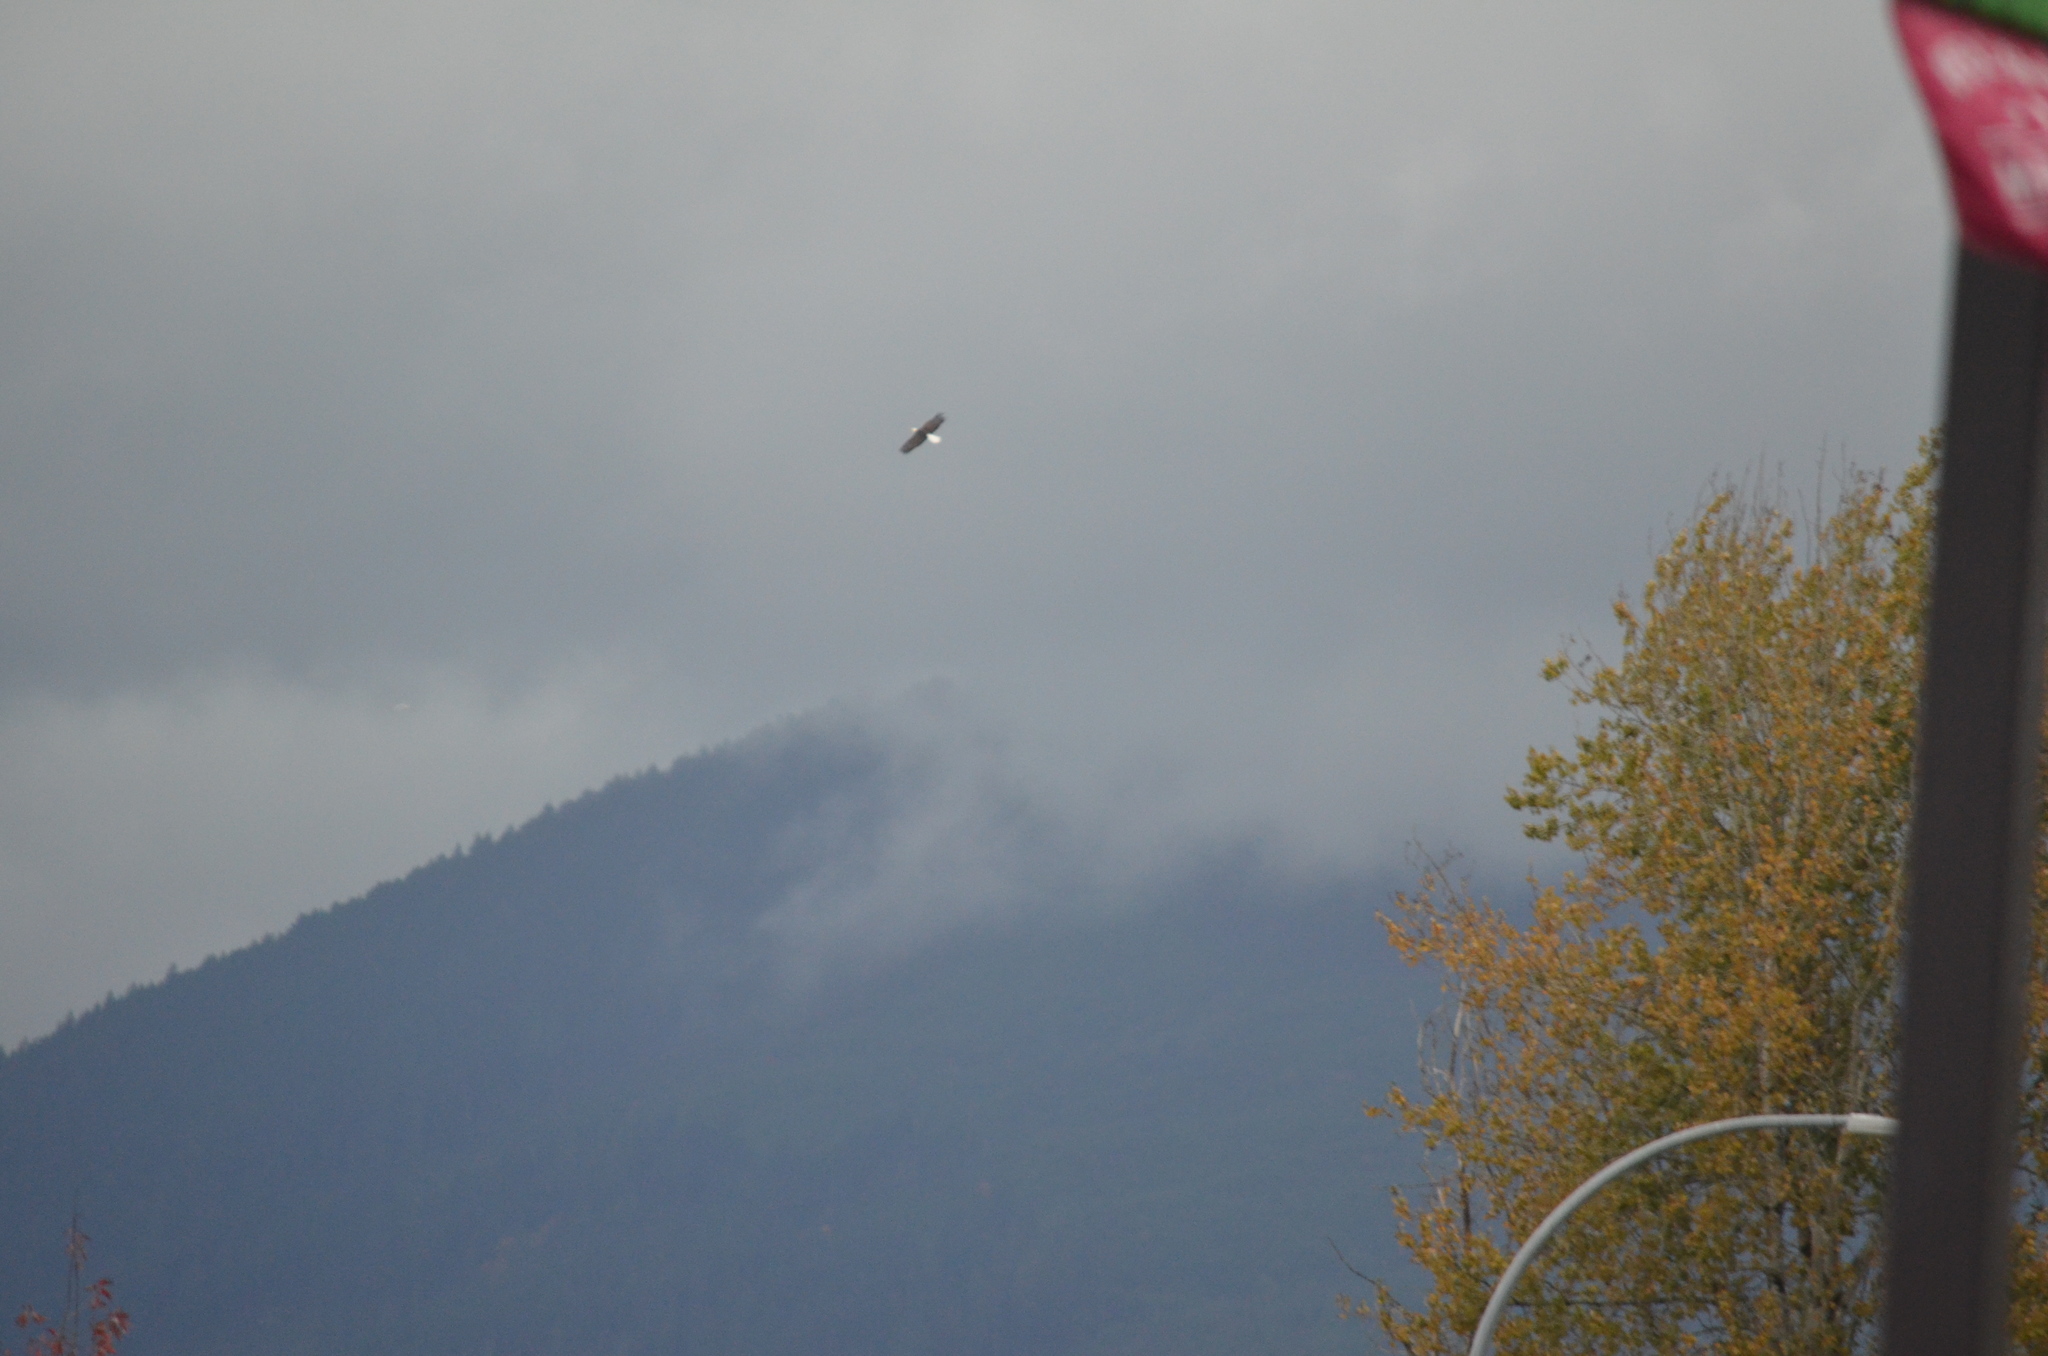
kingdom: Animalia
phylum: Chordata
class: Aves
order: Accipitriformes
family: Accipitridae
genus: Haliaeetus
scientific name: Haliaeetus leucocephalus
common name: Bald eagle
